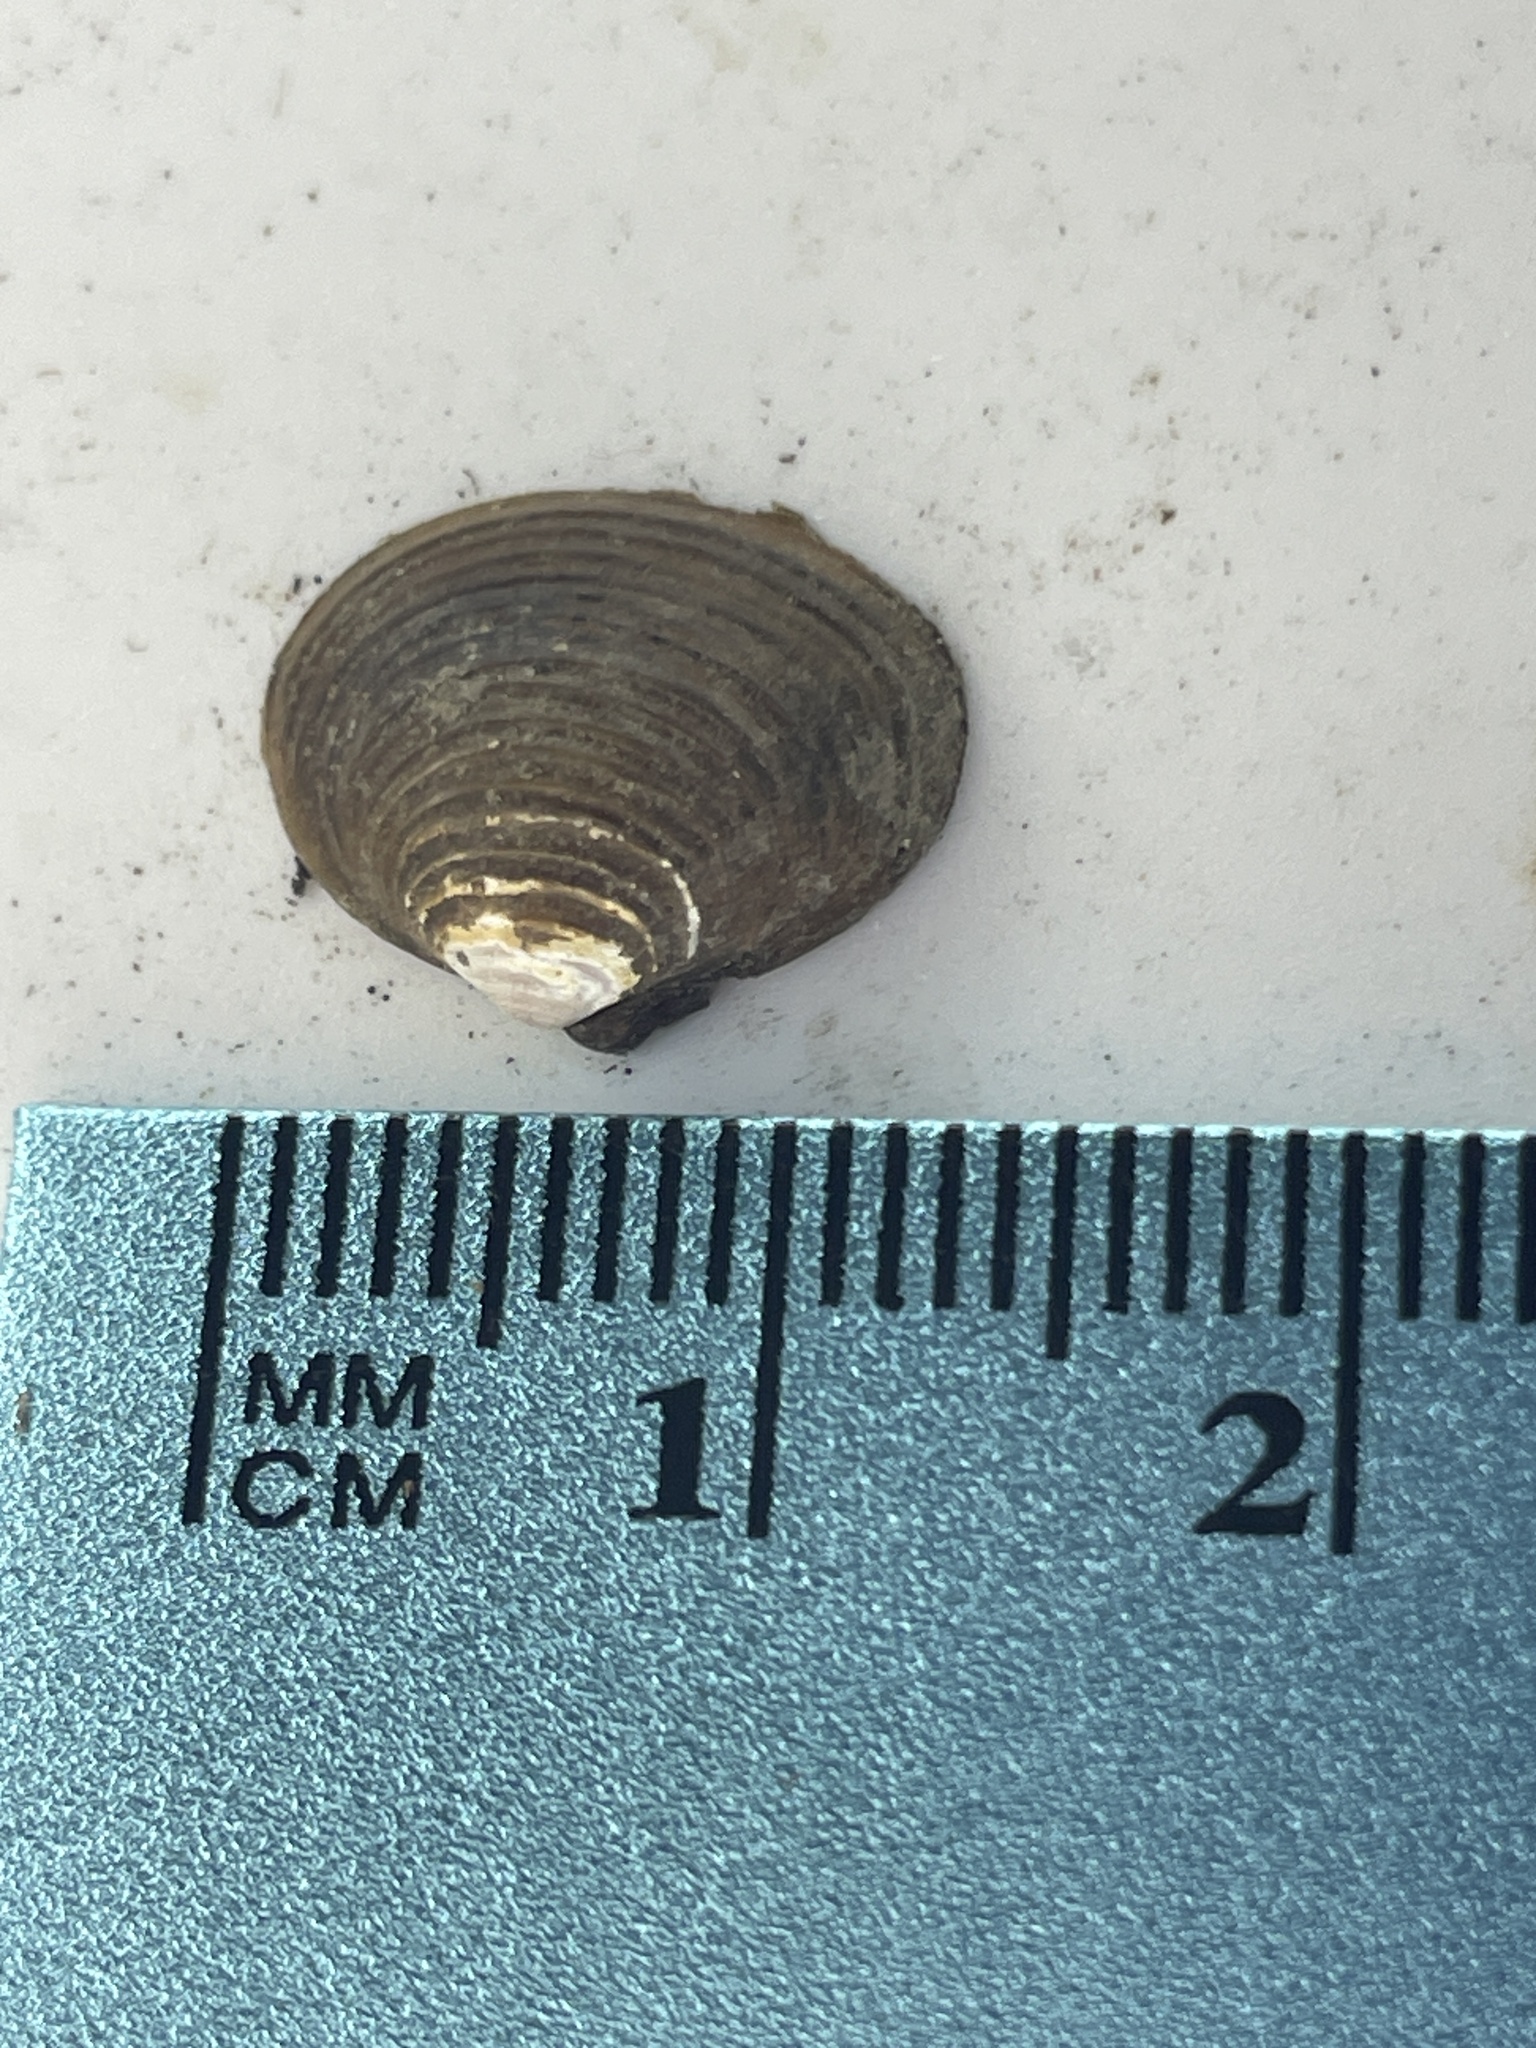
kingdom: Animalia
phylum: Mollusca
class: Bivalvia
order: Venerida
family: Cyrenidae
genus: Corbicula
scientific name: Corbicula fluminea
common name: Asian clam
